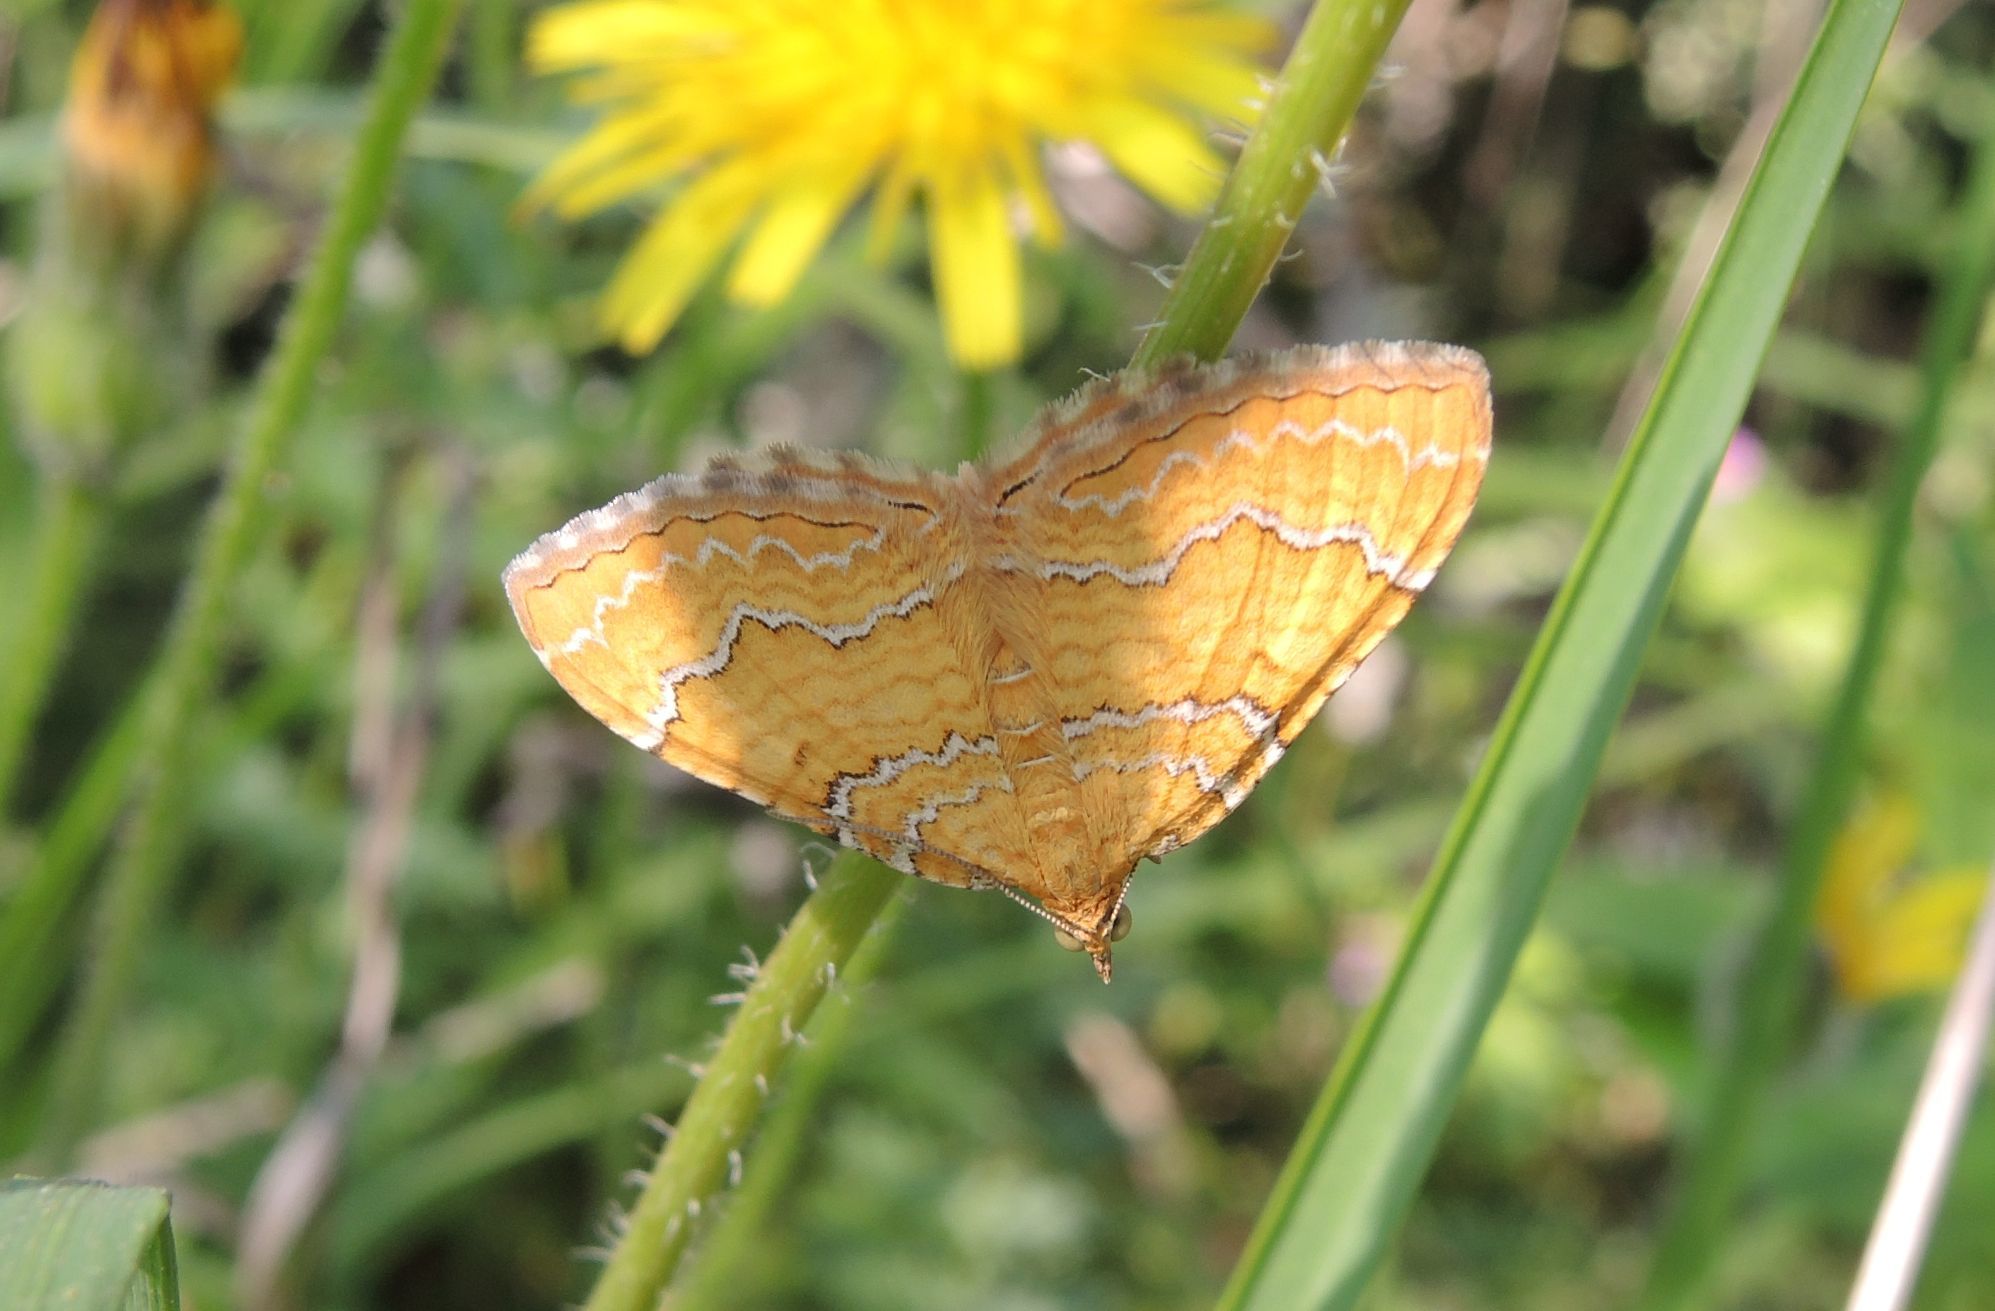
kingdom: Animalia
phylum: Arthropoda
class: Insecta
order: Lepidoptera
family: Geometridae
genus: Camptogramma
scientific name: Camptogramma bilineata
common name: Yellow shell
